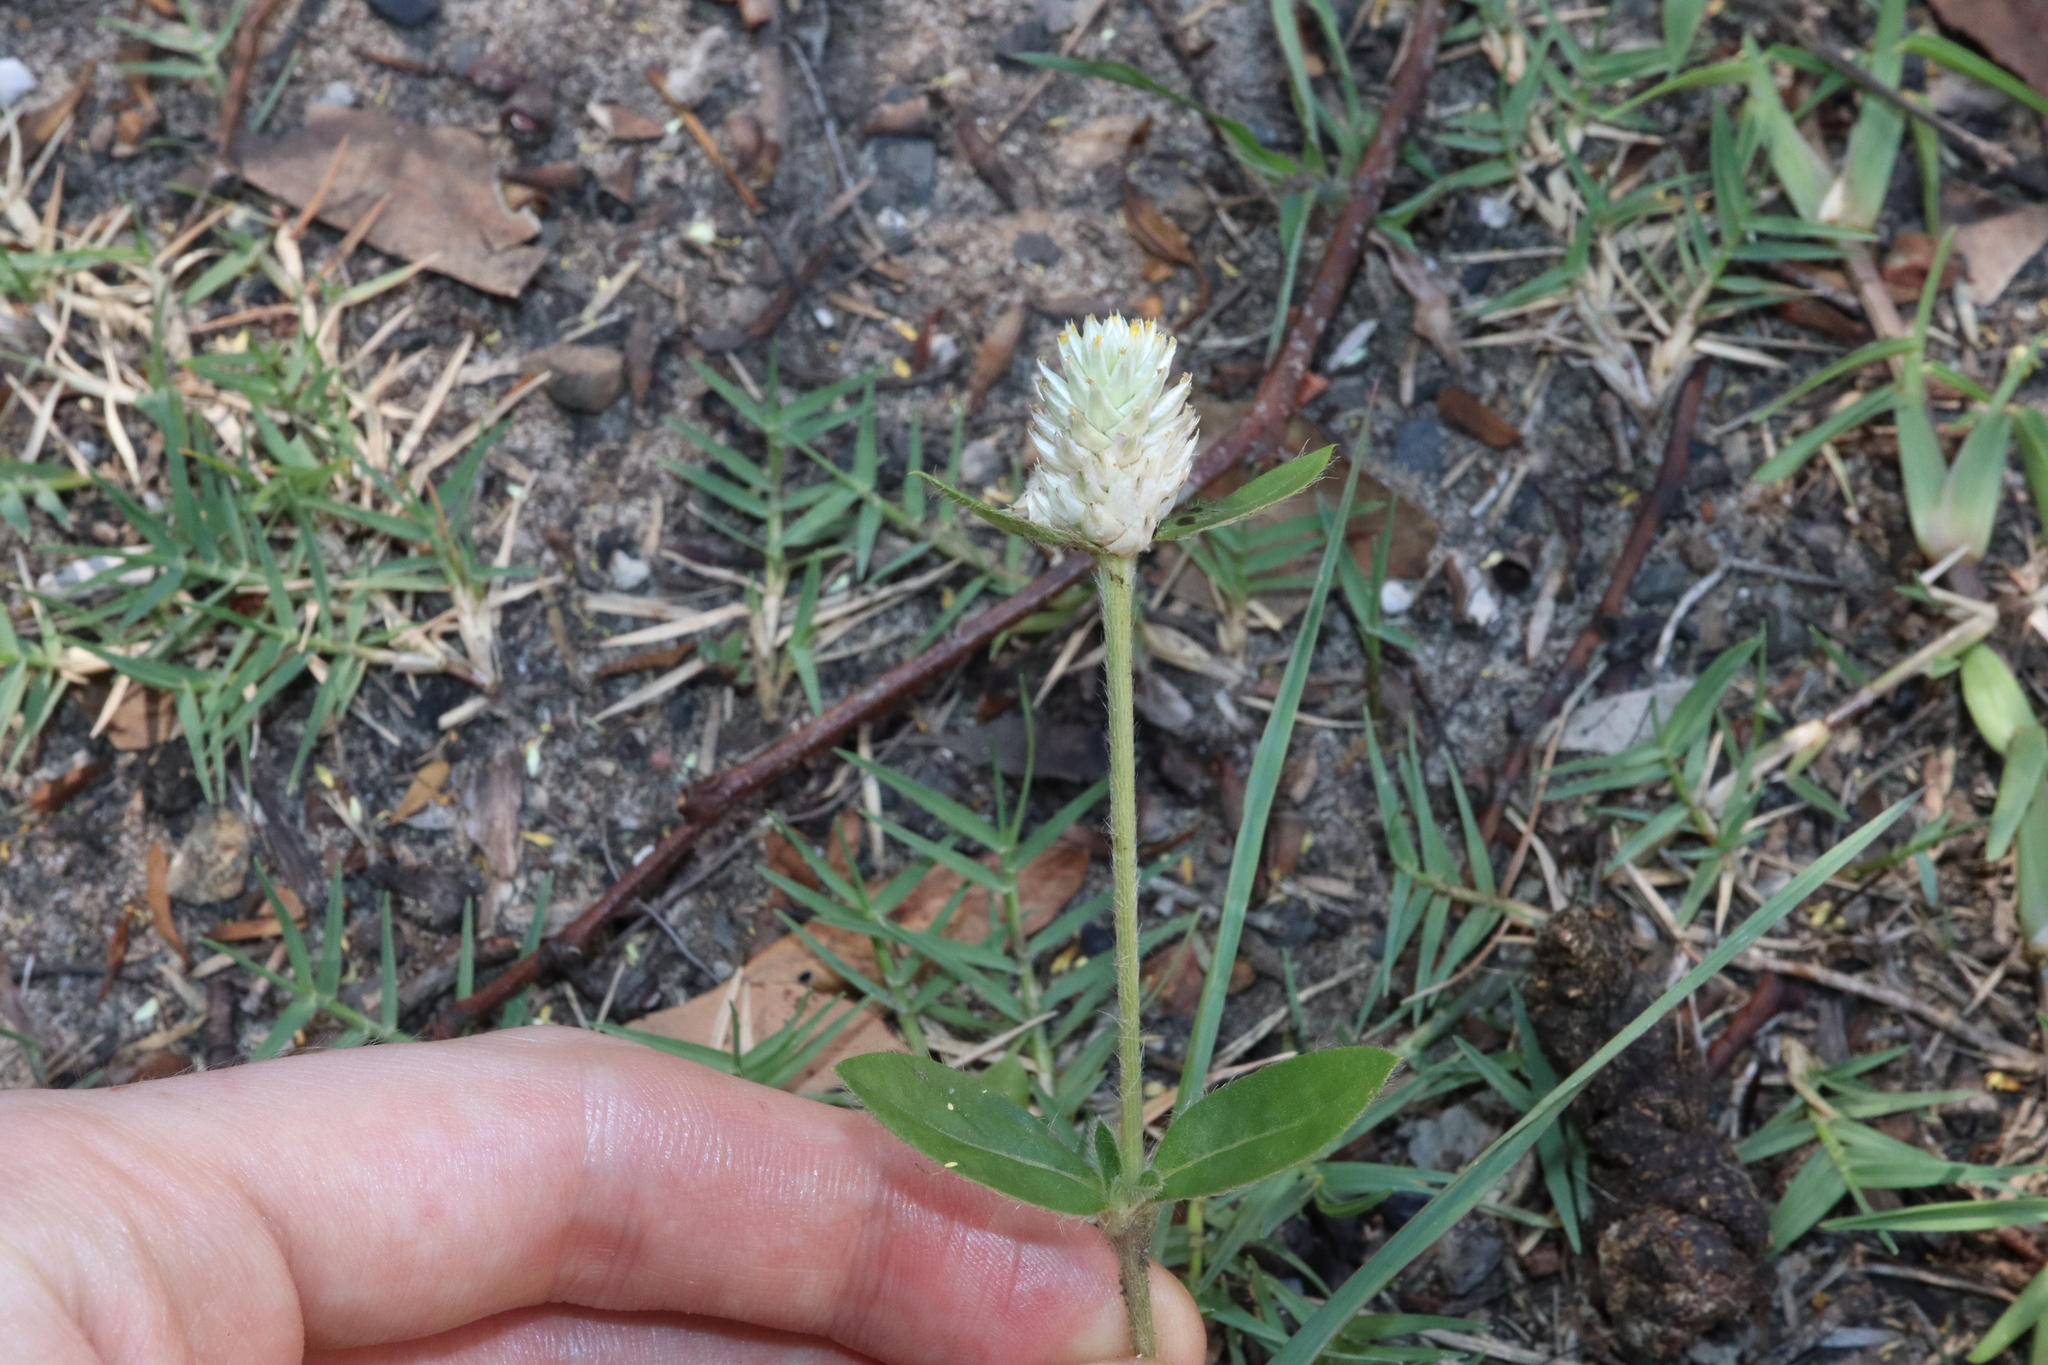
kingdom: Plantae
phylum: Tracheophyta
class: Magnoliopsida
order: Caryophyllales
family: Amaranthaceae
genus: Gomphrena
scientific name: Gomphrena celosioides
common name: Gomphrena-weed
